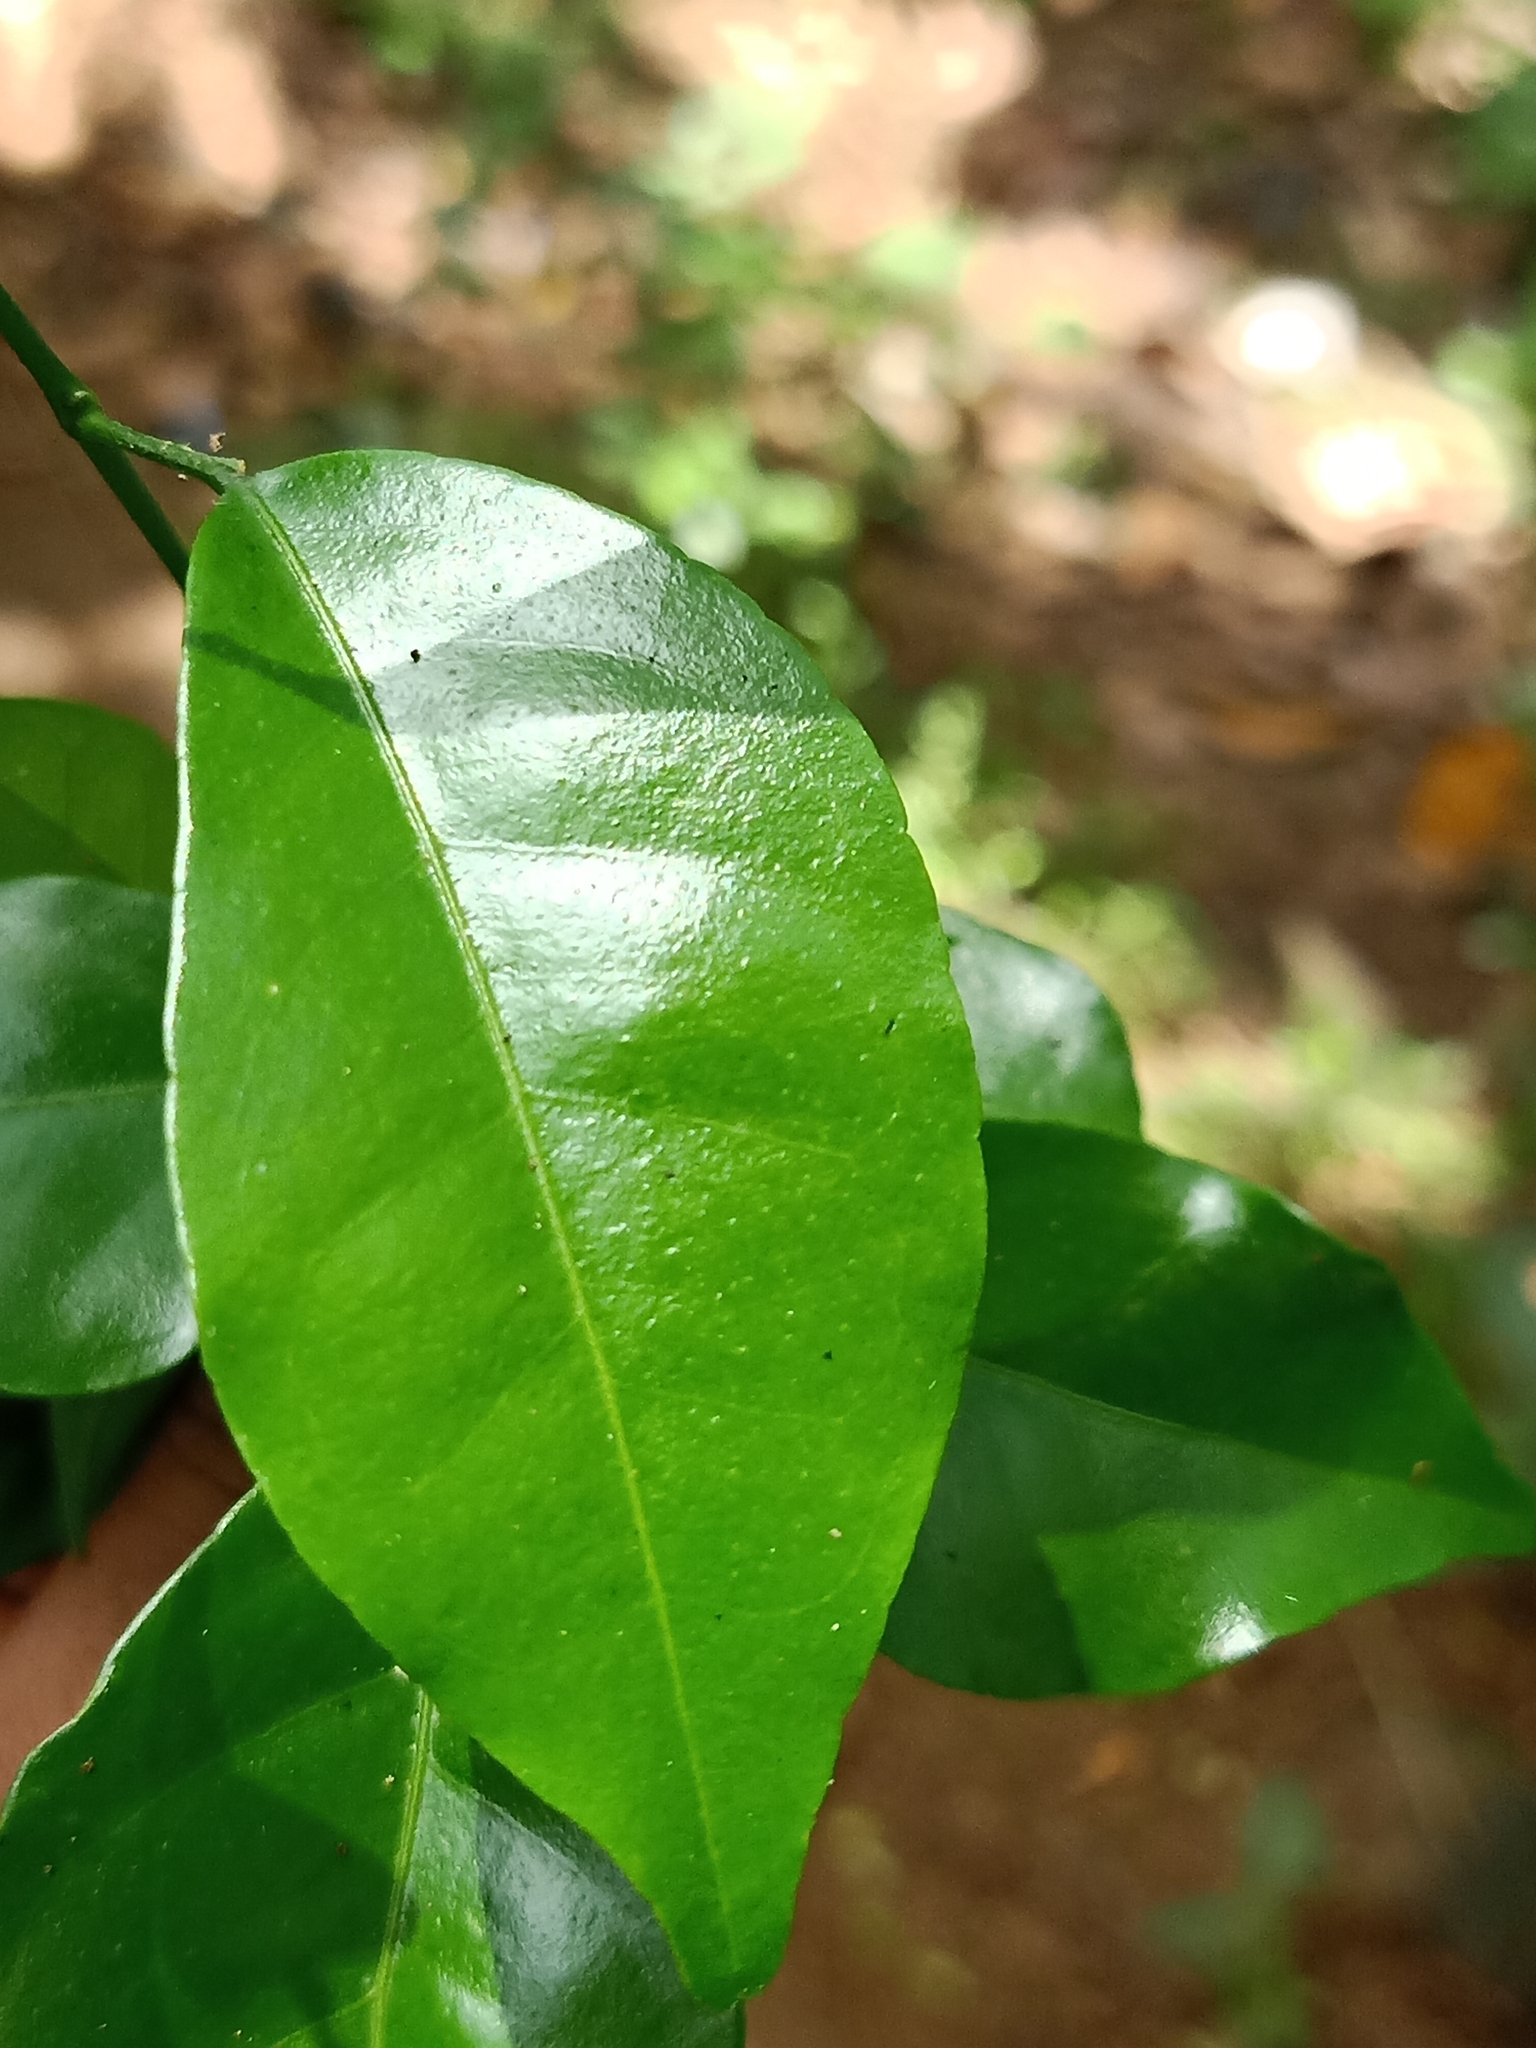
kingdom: Plantae
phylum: Tracheophyta
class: Magnoliopsida
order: Sapindales
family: Rutaceae
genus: Murraya
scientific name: Murraya paniculata
